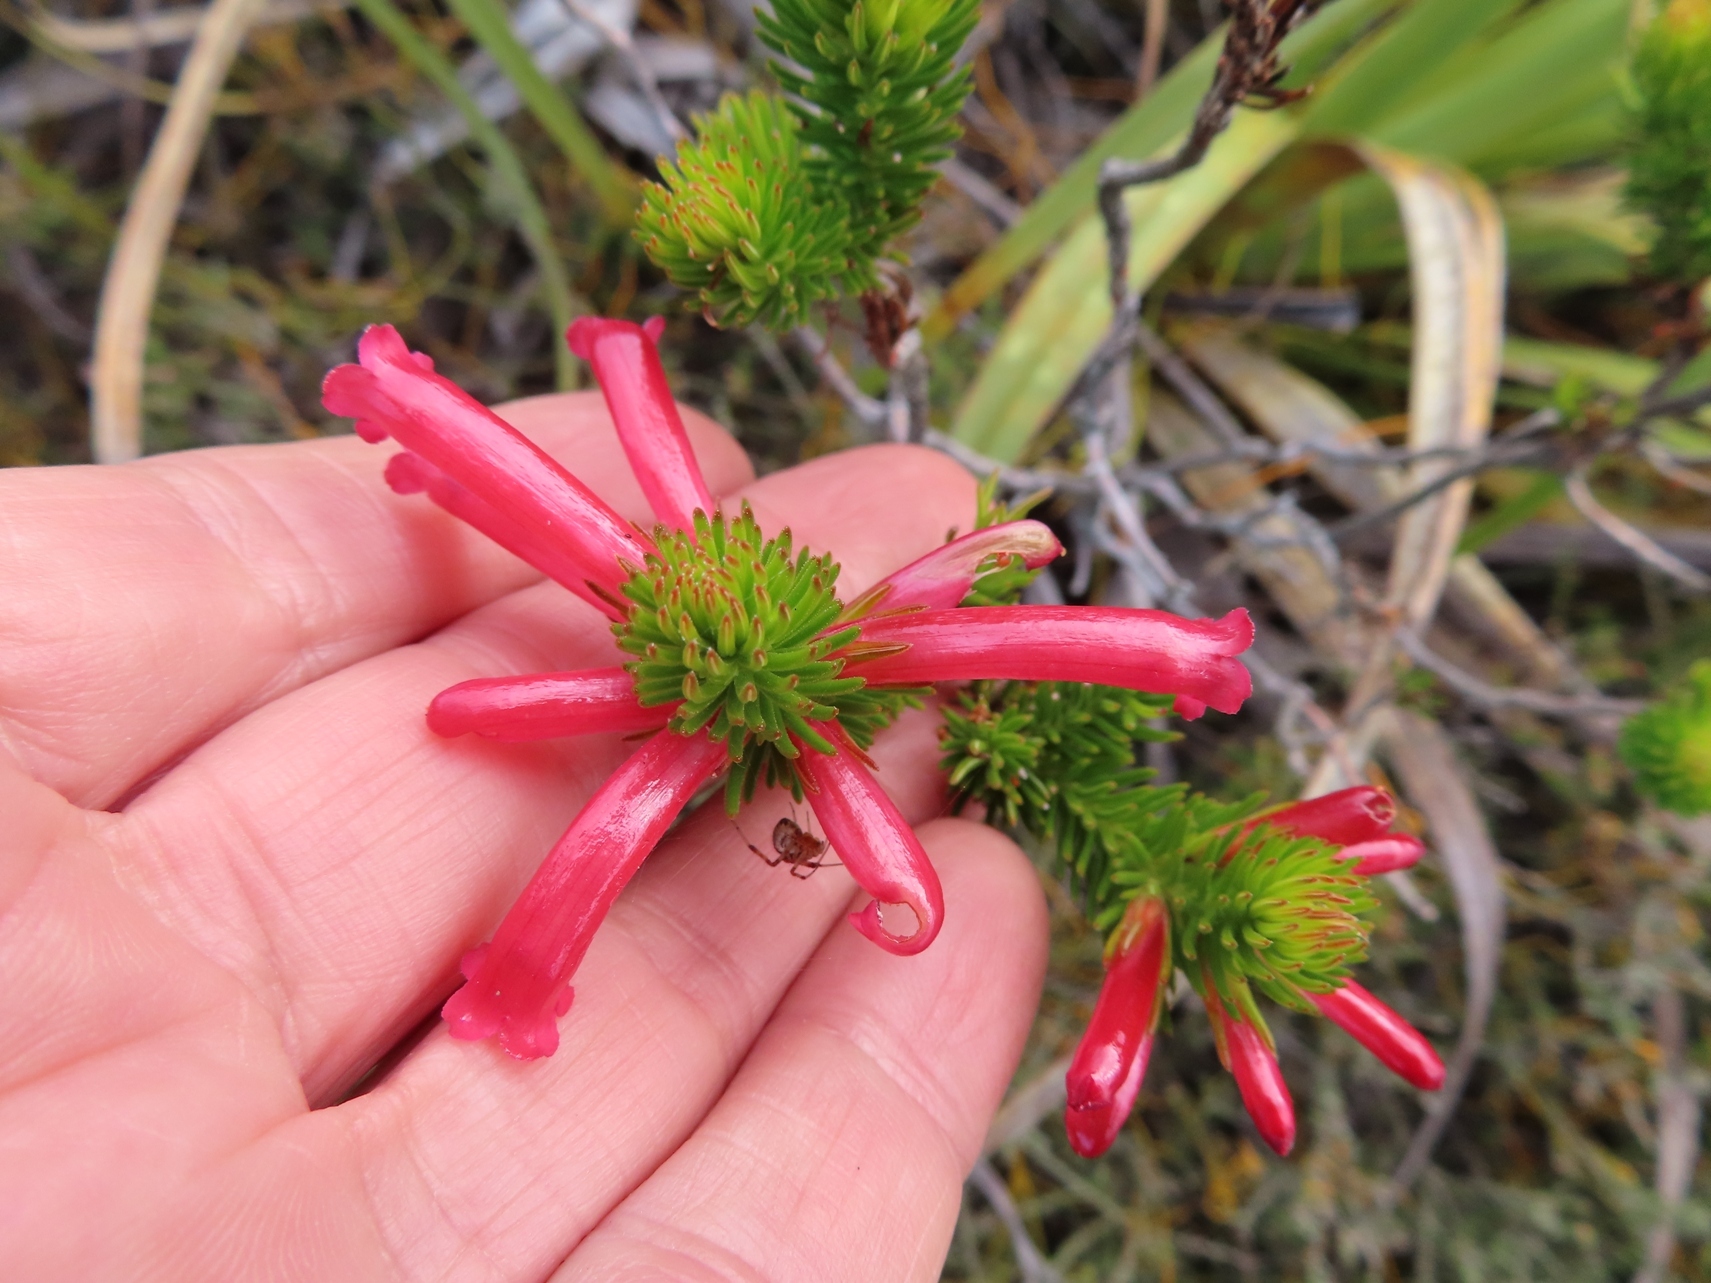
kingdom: Plantae
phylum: Tracheophyta
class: Magnoliopsida
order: Ericales
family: Ericaceae
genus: Erica
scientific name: Erica regia
